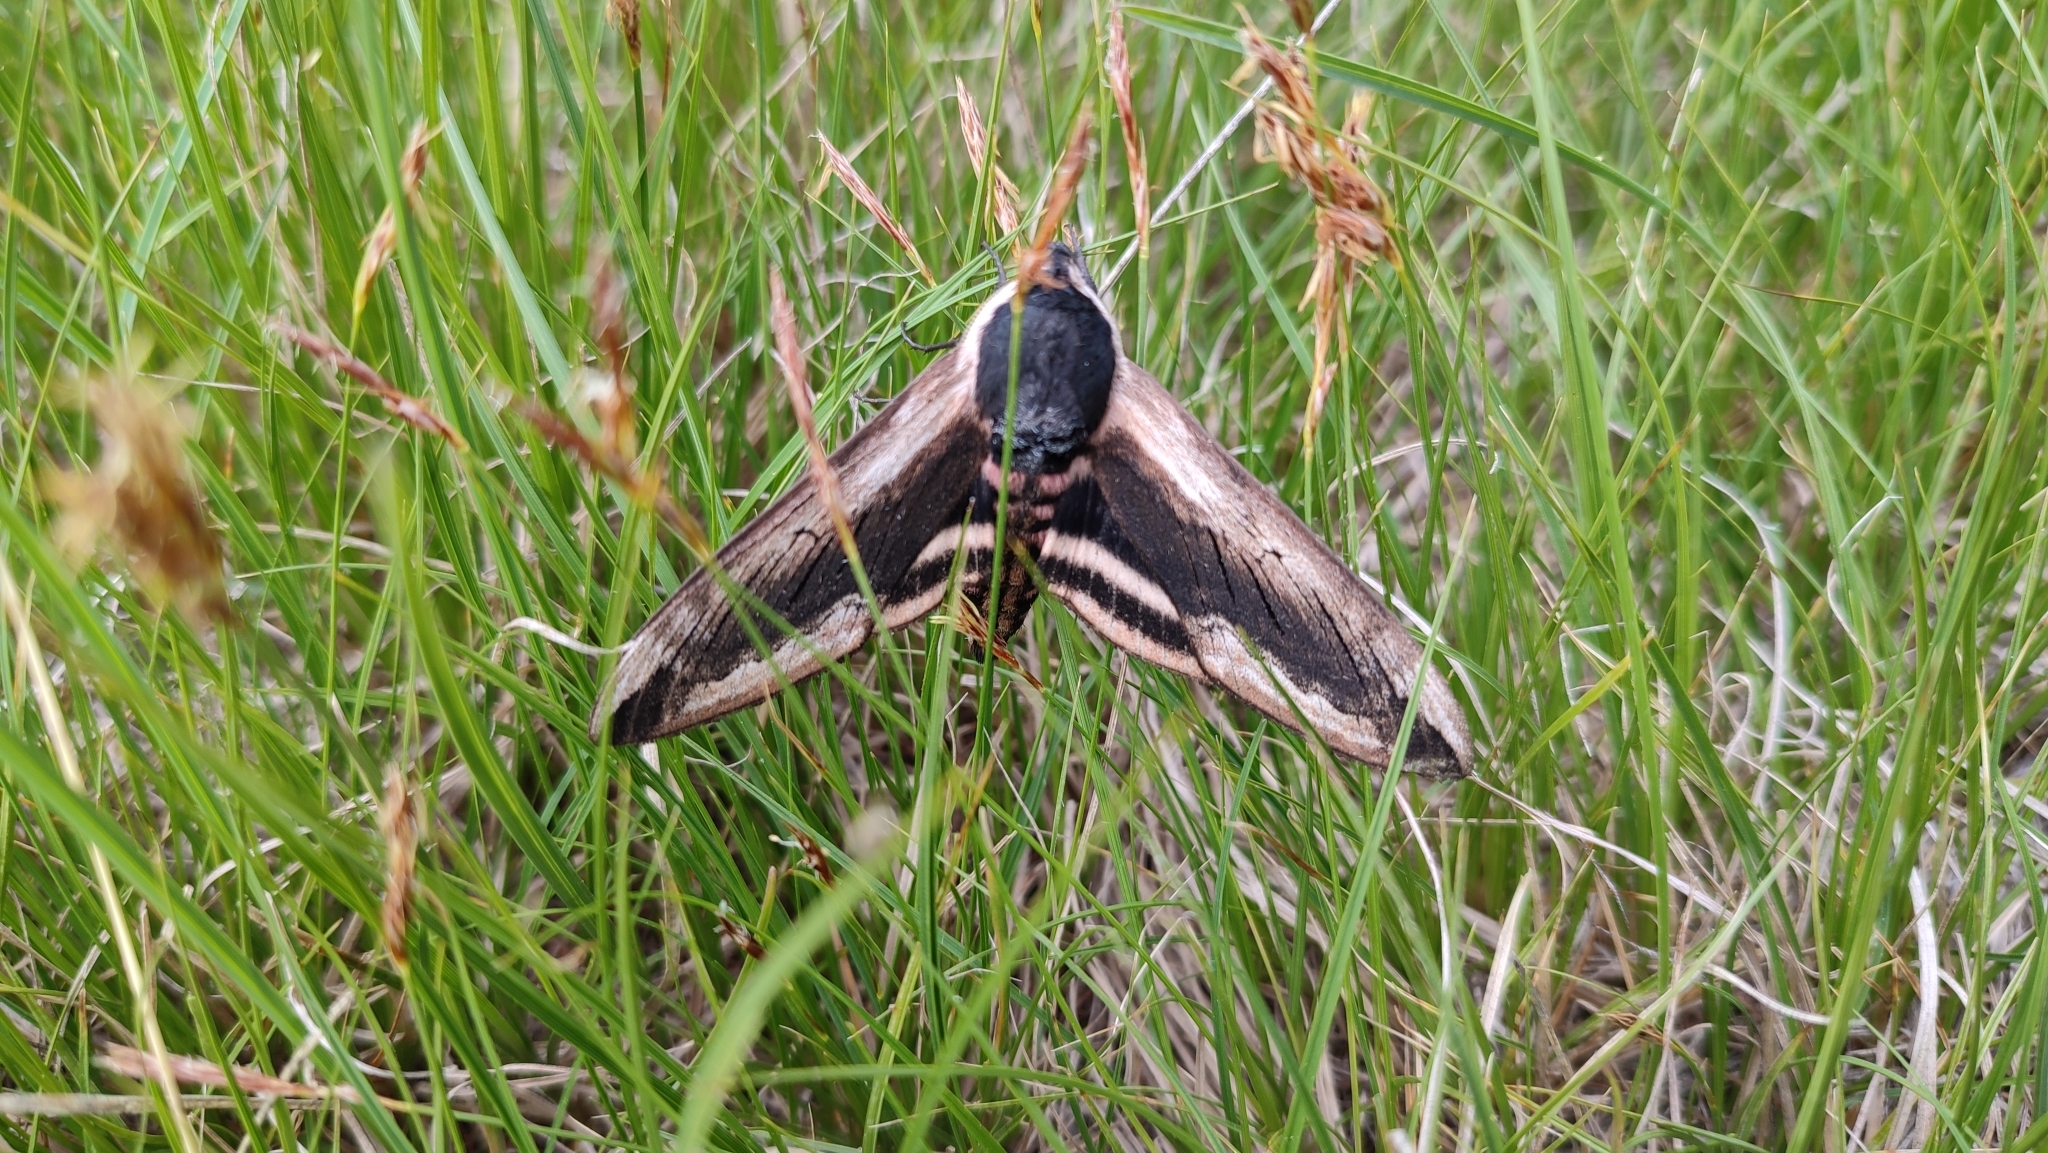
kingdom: Animalia
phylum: Arthropoda
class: Insecta
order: Lepidoptera
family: Sphingidae
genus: Sphinx
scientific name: Sphinx ligustri
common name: Privet hawk-moth
